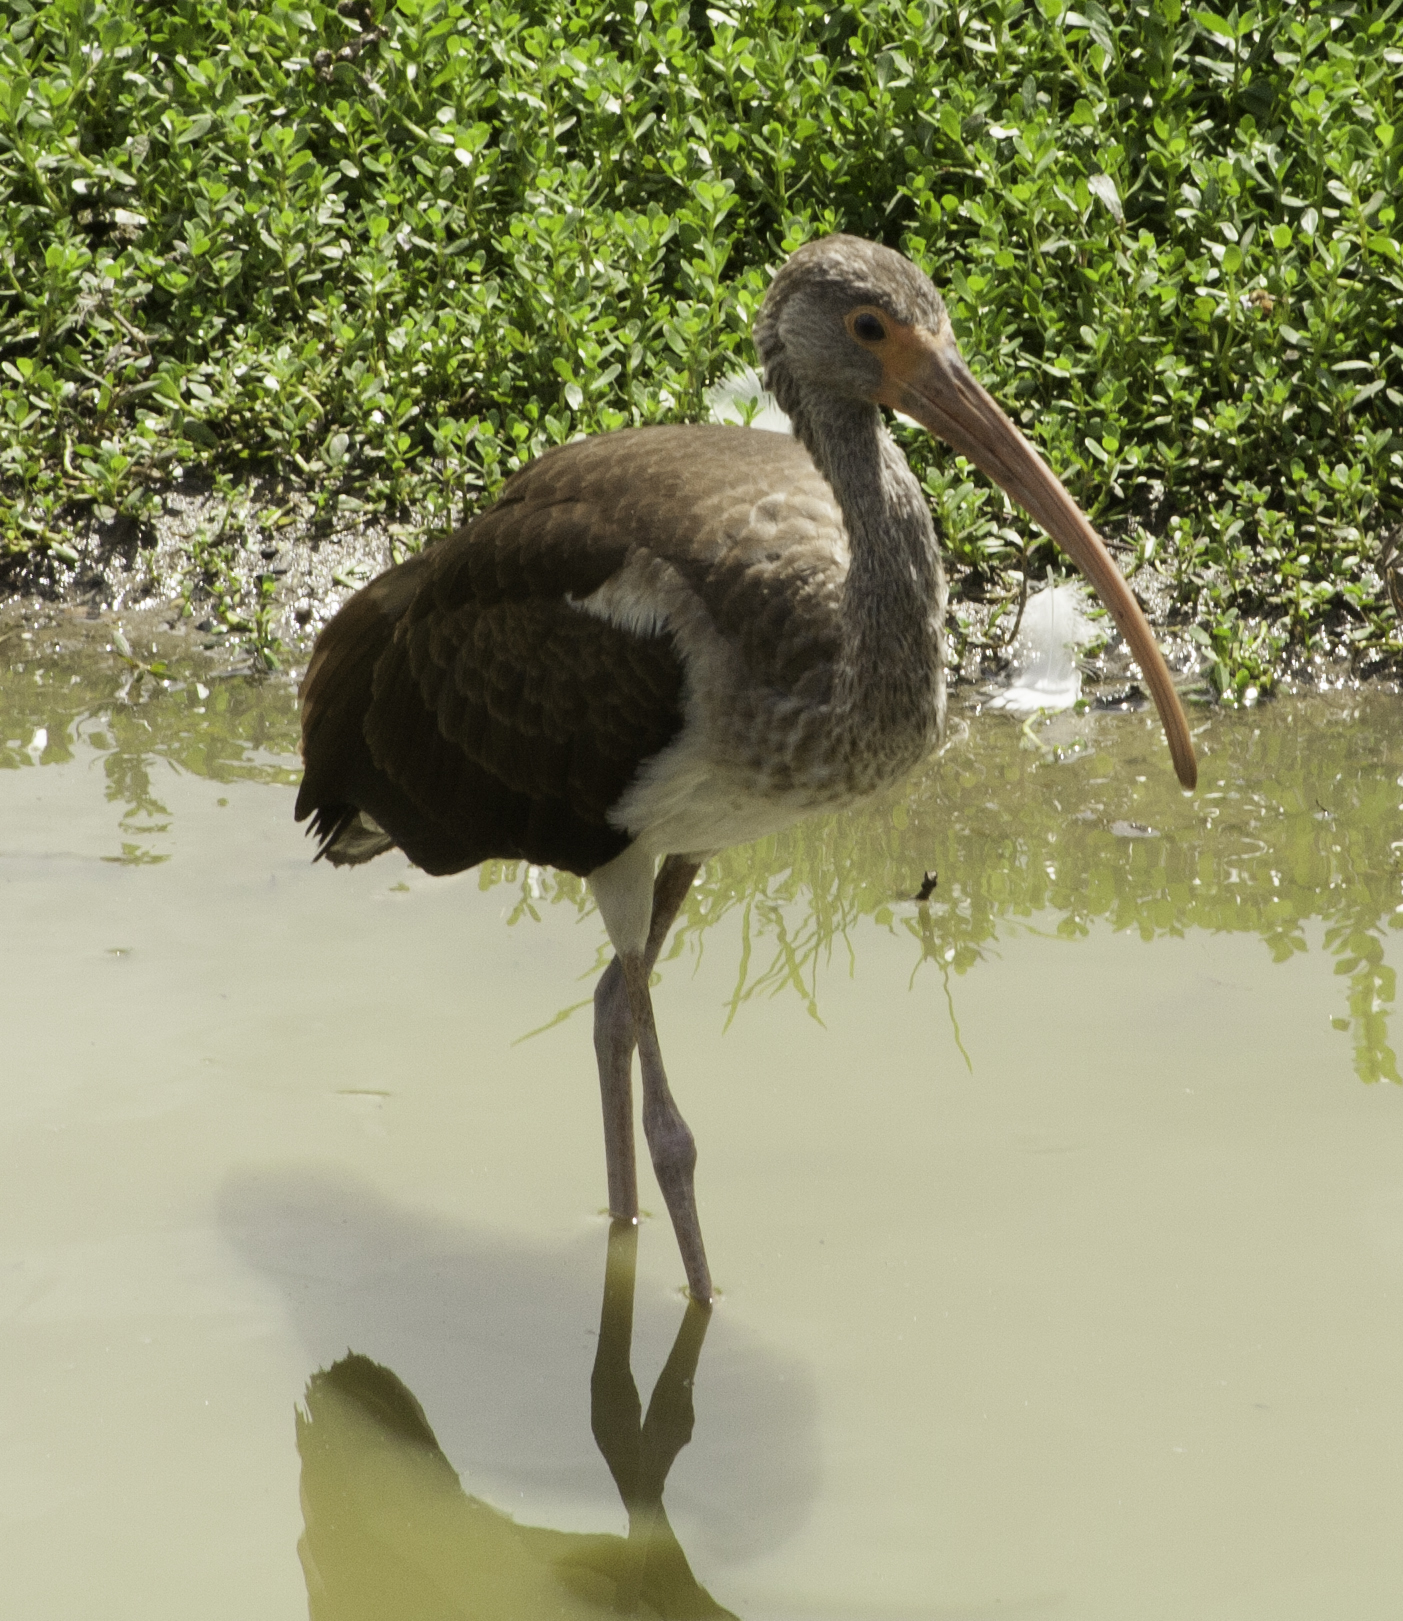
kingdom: Animalia
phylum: Chordata
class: Aves
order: Pelecaniformes
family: Threskiornithidae
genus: Eudocimus
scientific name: Eudocimus albus
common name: White ibis
